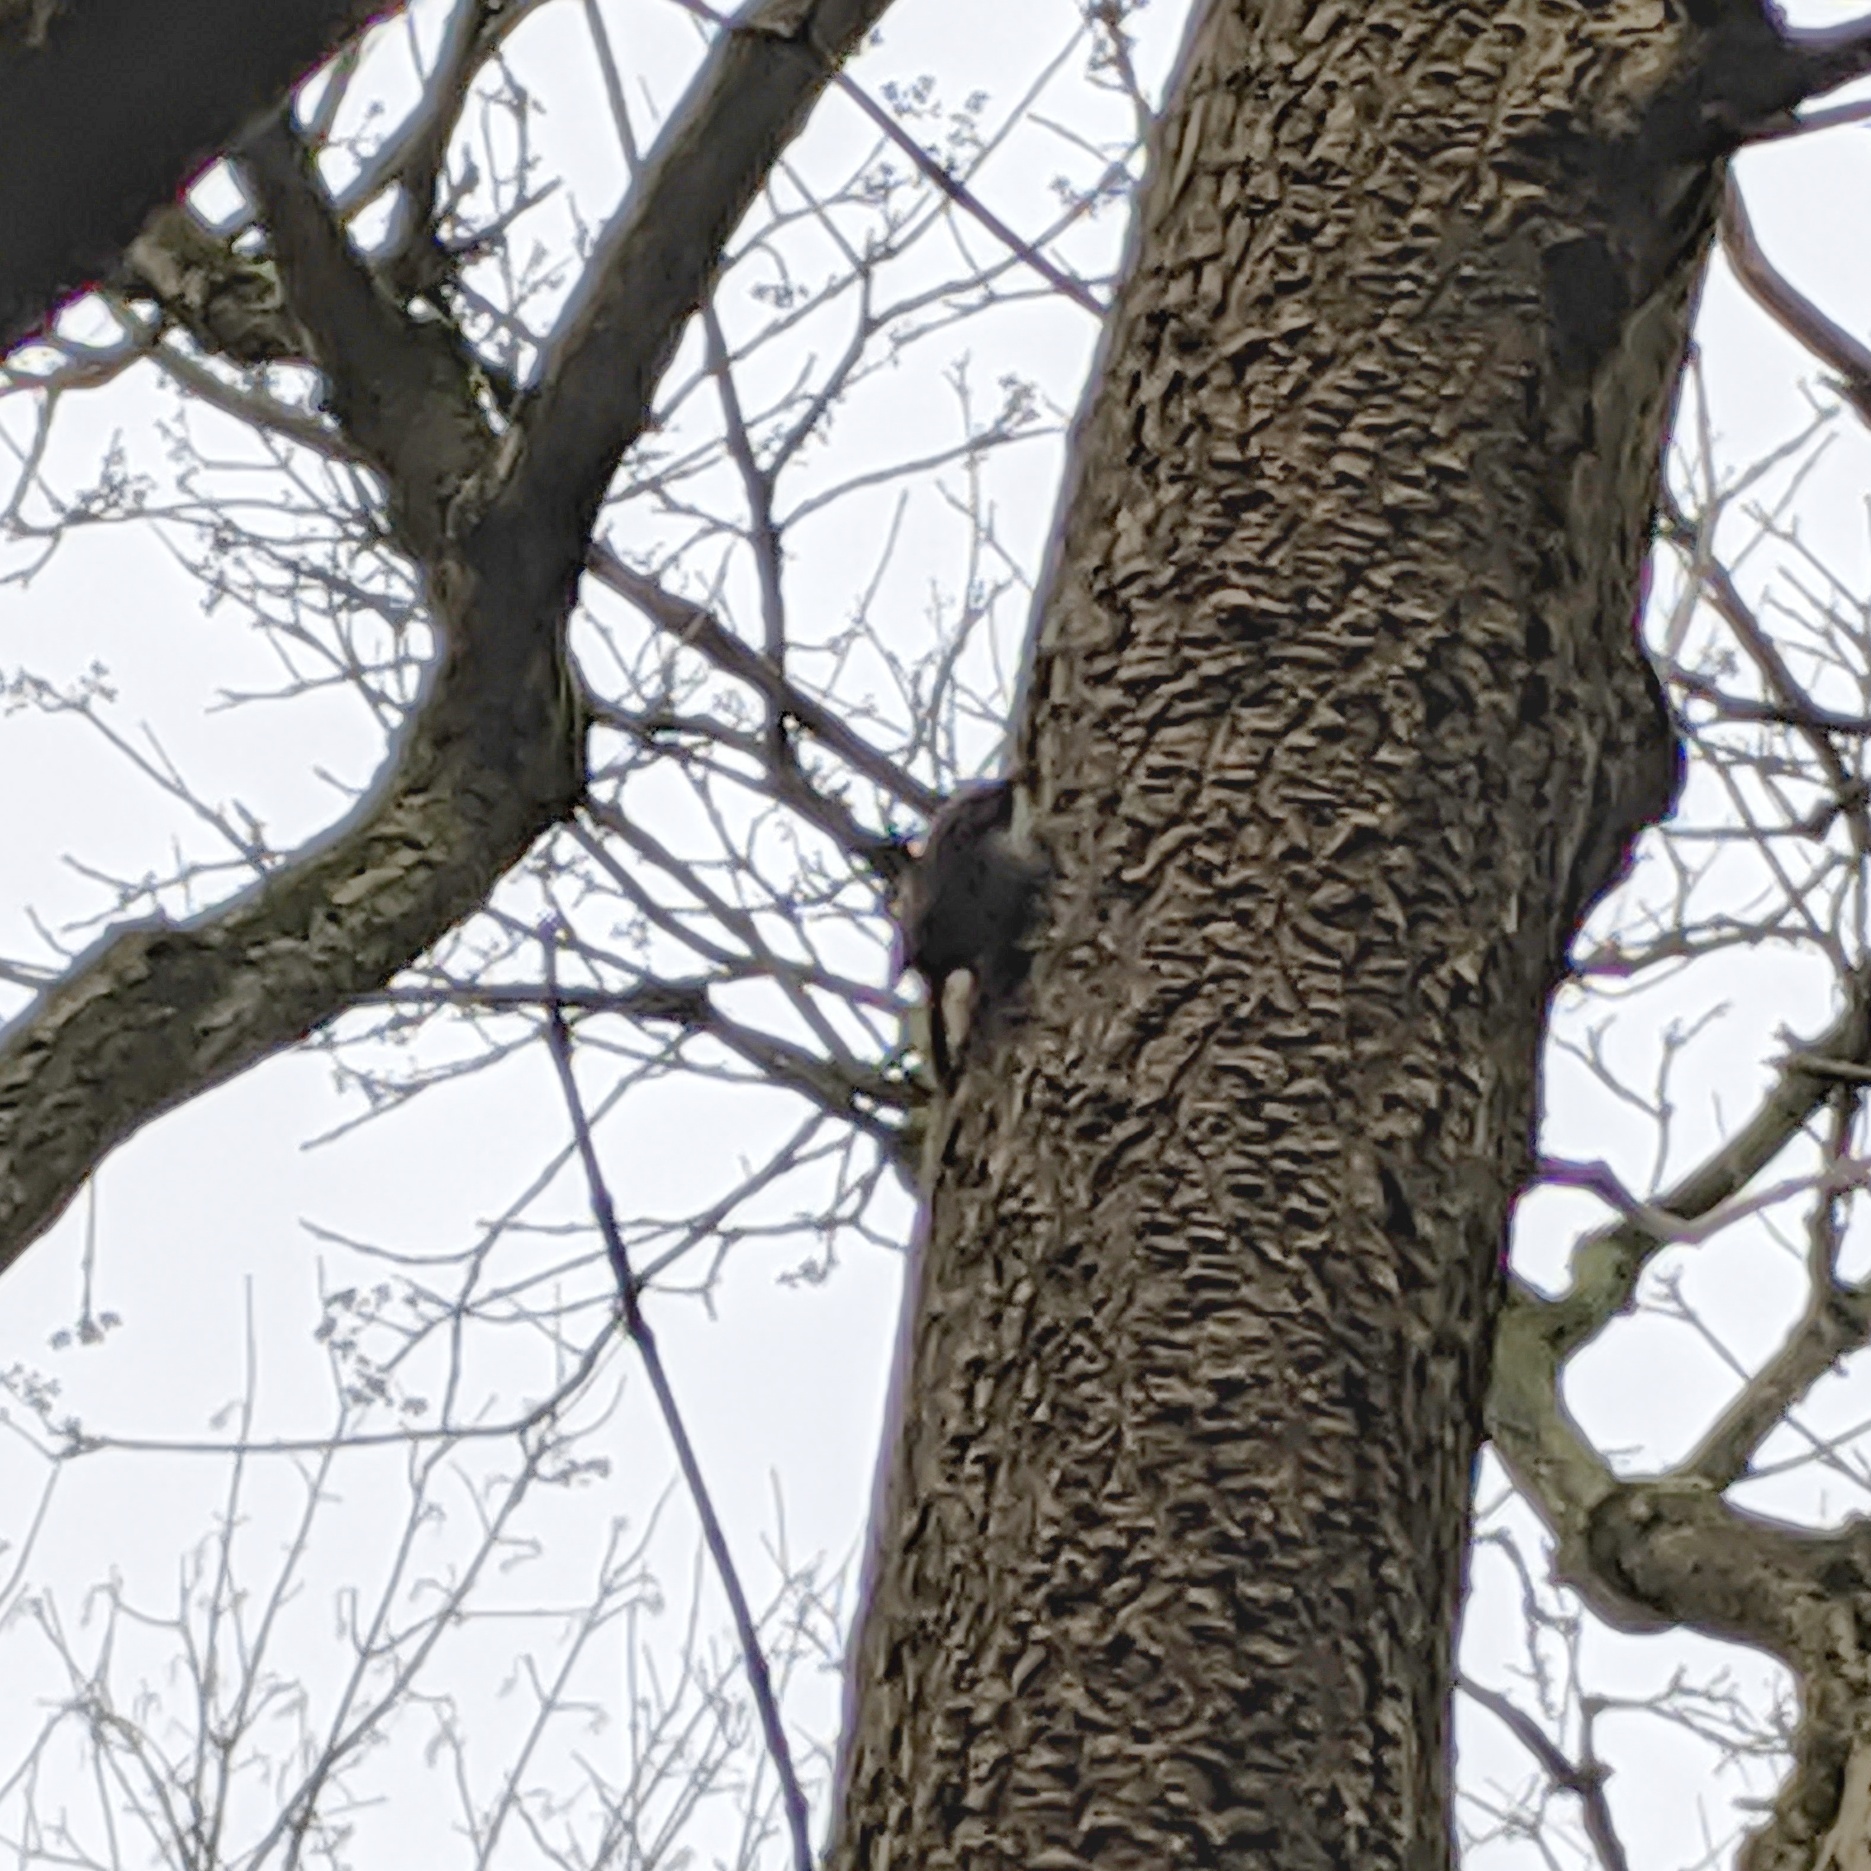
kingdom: Animalia
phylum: Chordata
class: Aves
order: Passeriformes
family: Certhiidae
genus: Certhia
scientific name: Certhia brachydactyla
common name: Short-toed treecreeper
